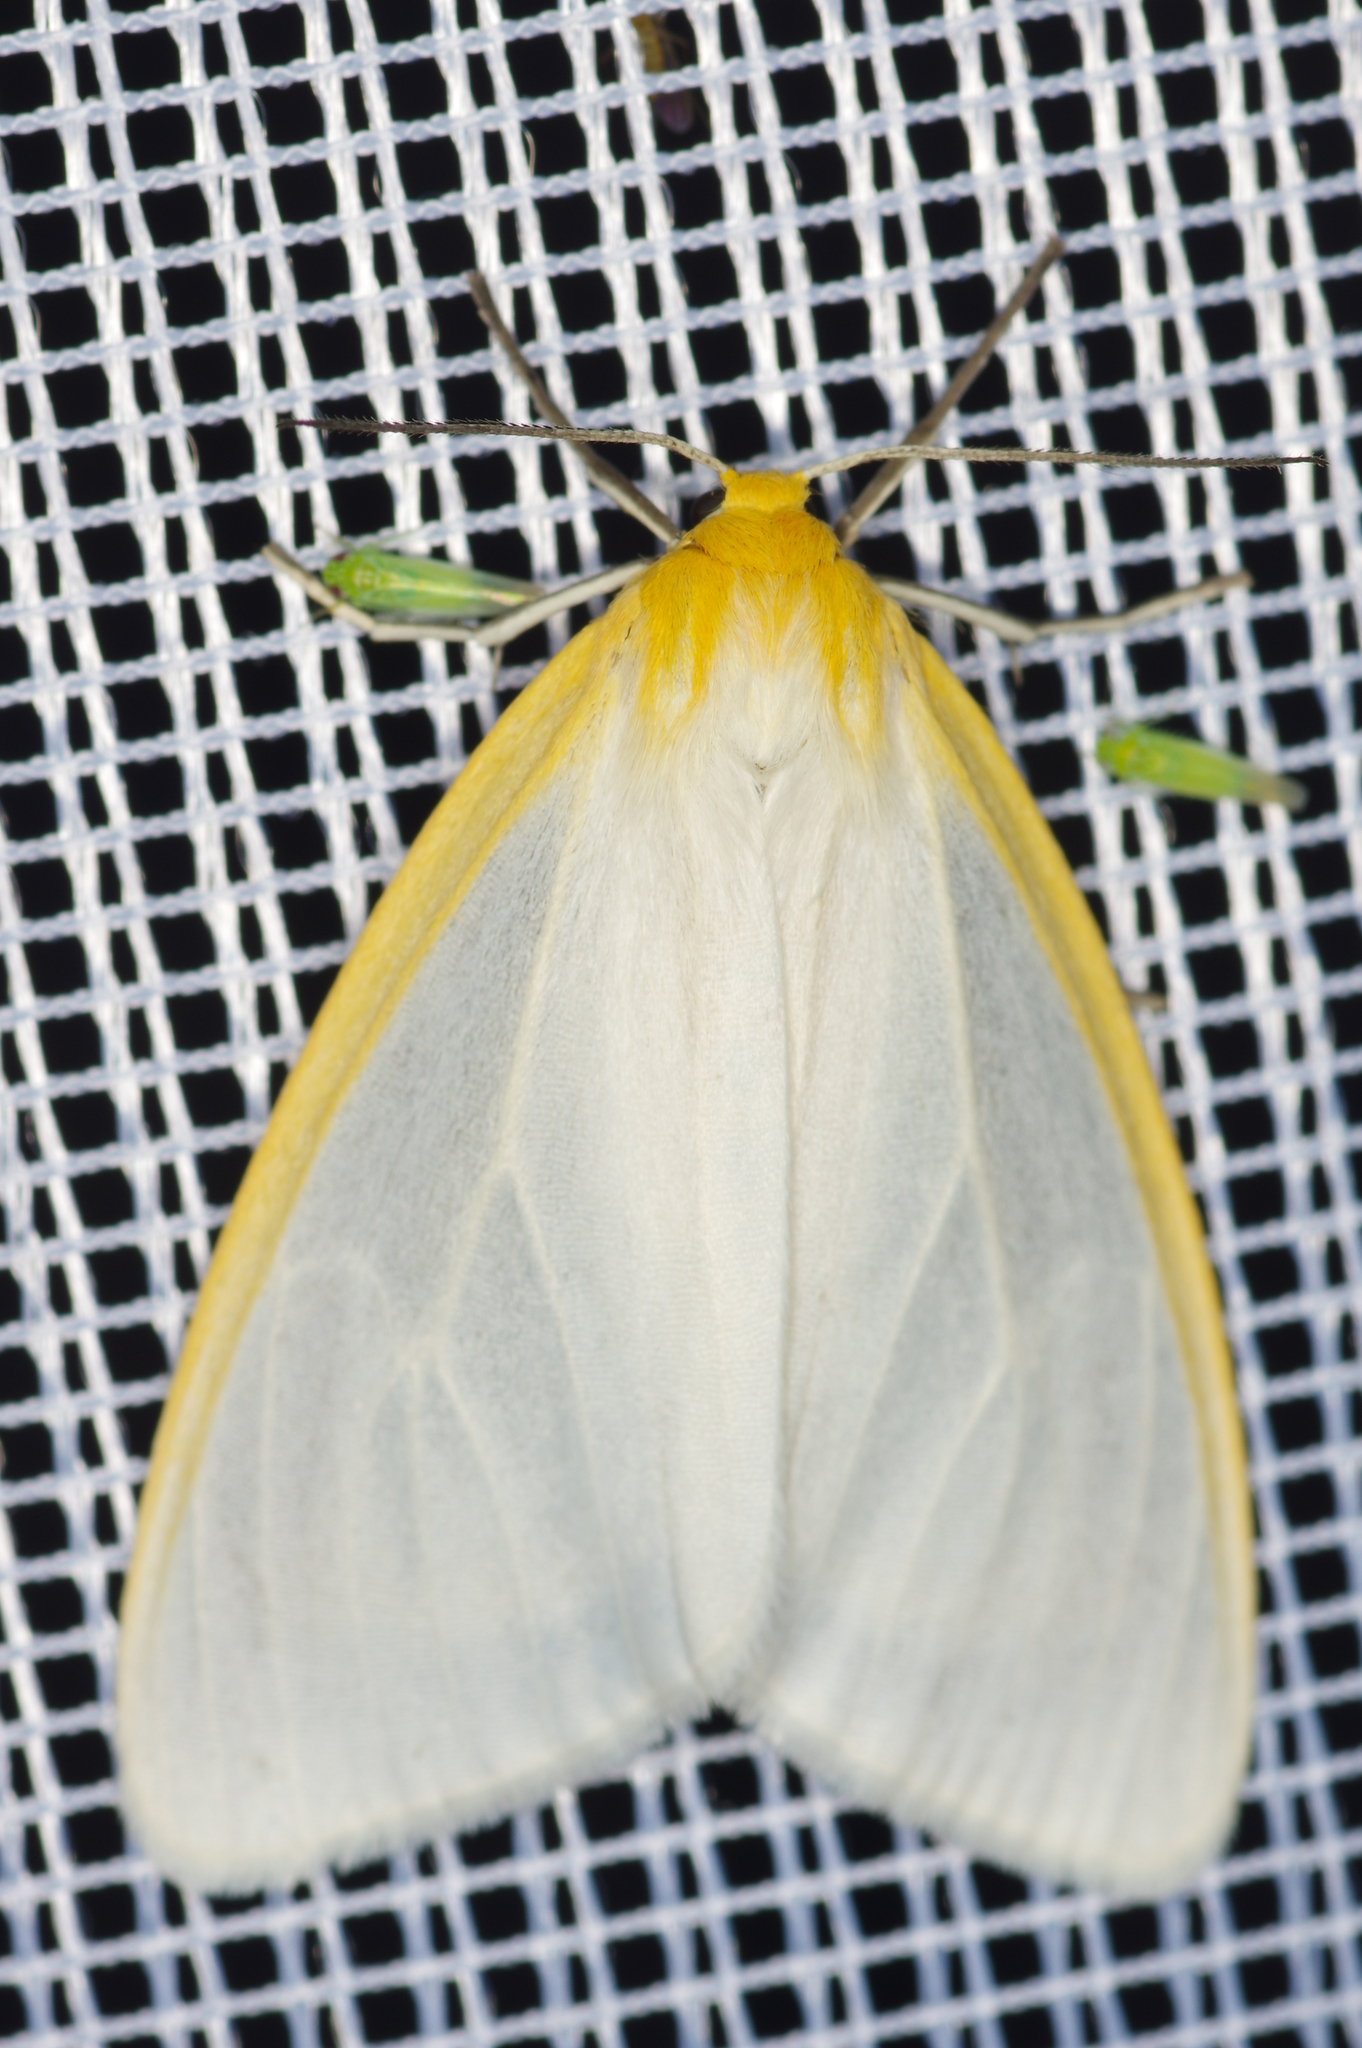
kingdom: Animalia
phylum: Arthropoda
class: Insecta
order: Lepidoptera
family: Erebidae
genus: Cycnia
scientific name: Cycnia tenera
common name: Delicate cycnia moth
